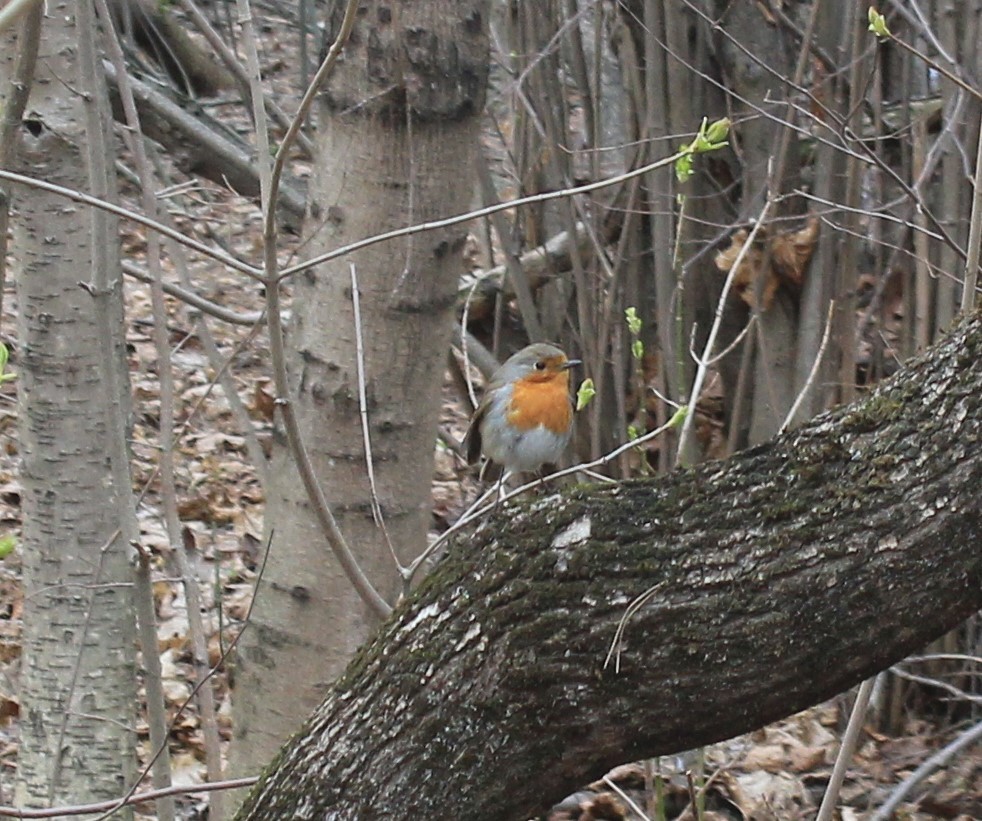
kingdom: Animalia
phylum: Chordata
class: Aves
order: Passeriformes
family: Muscicapidae
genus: Erithacus
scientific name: Erithacus rubecula
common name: European robin
